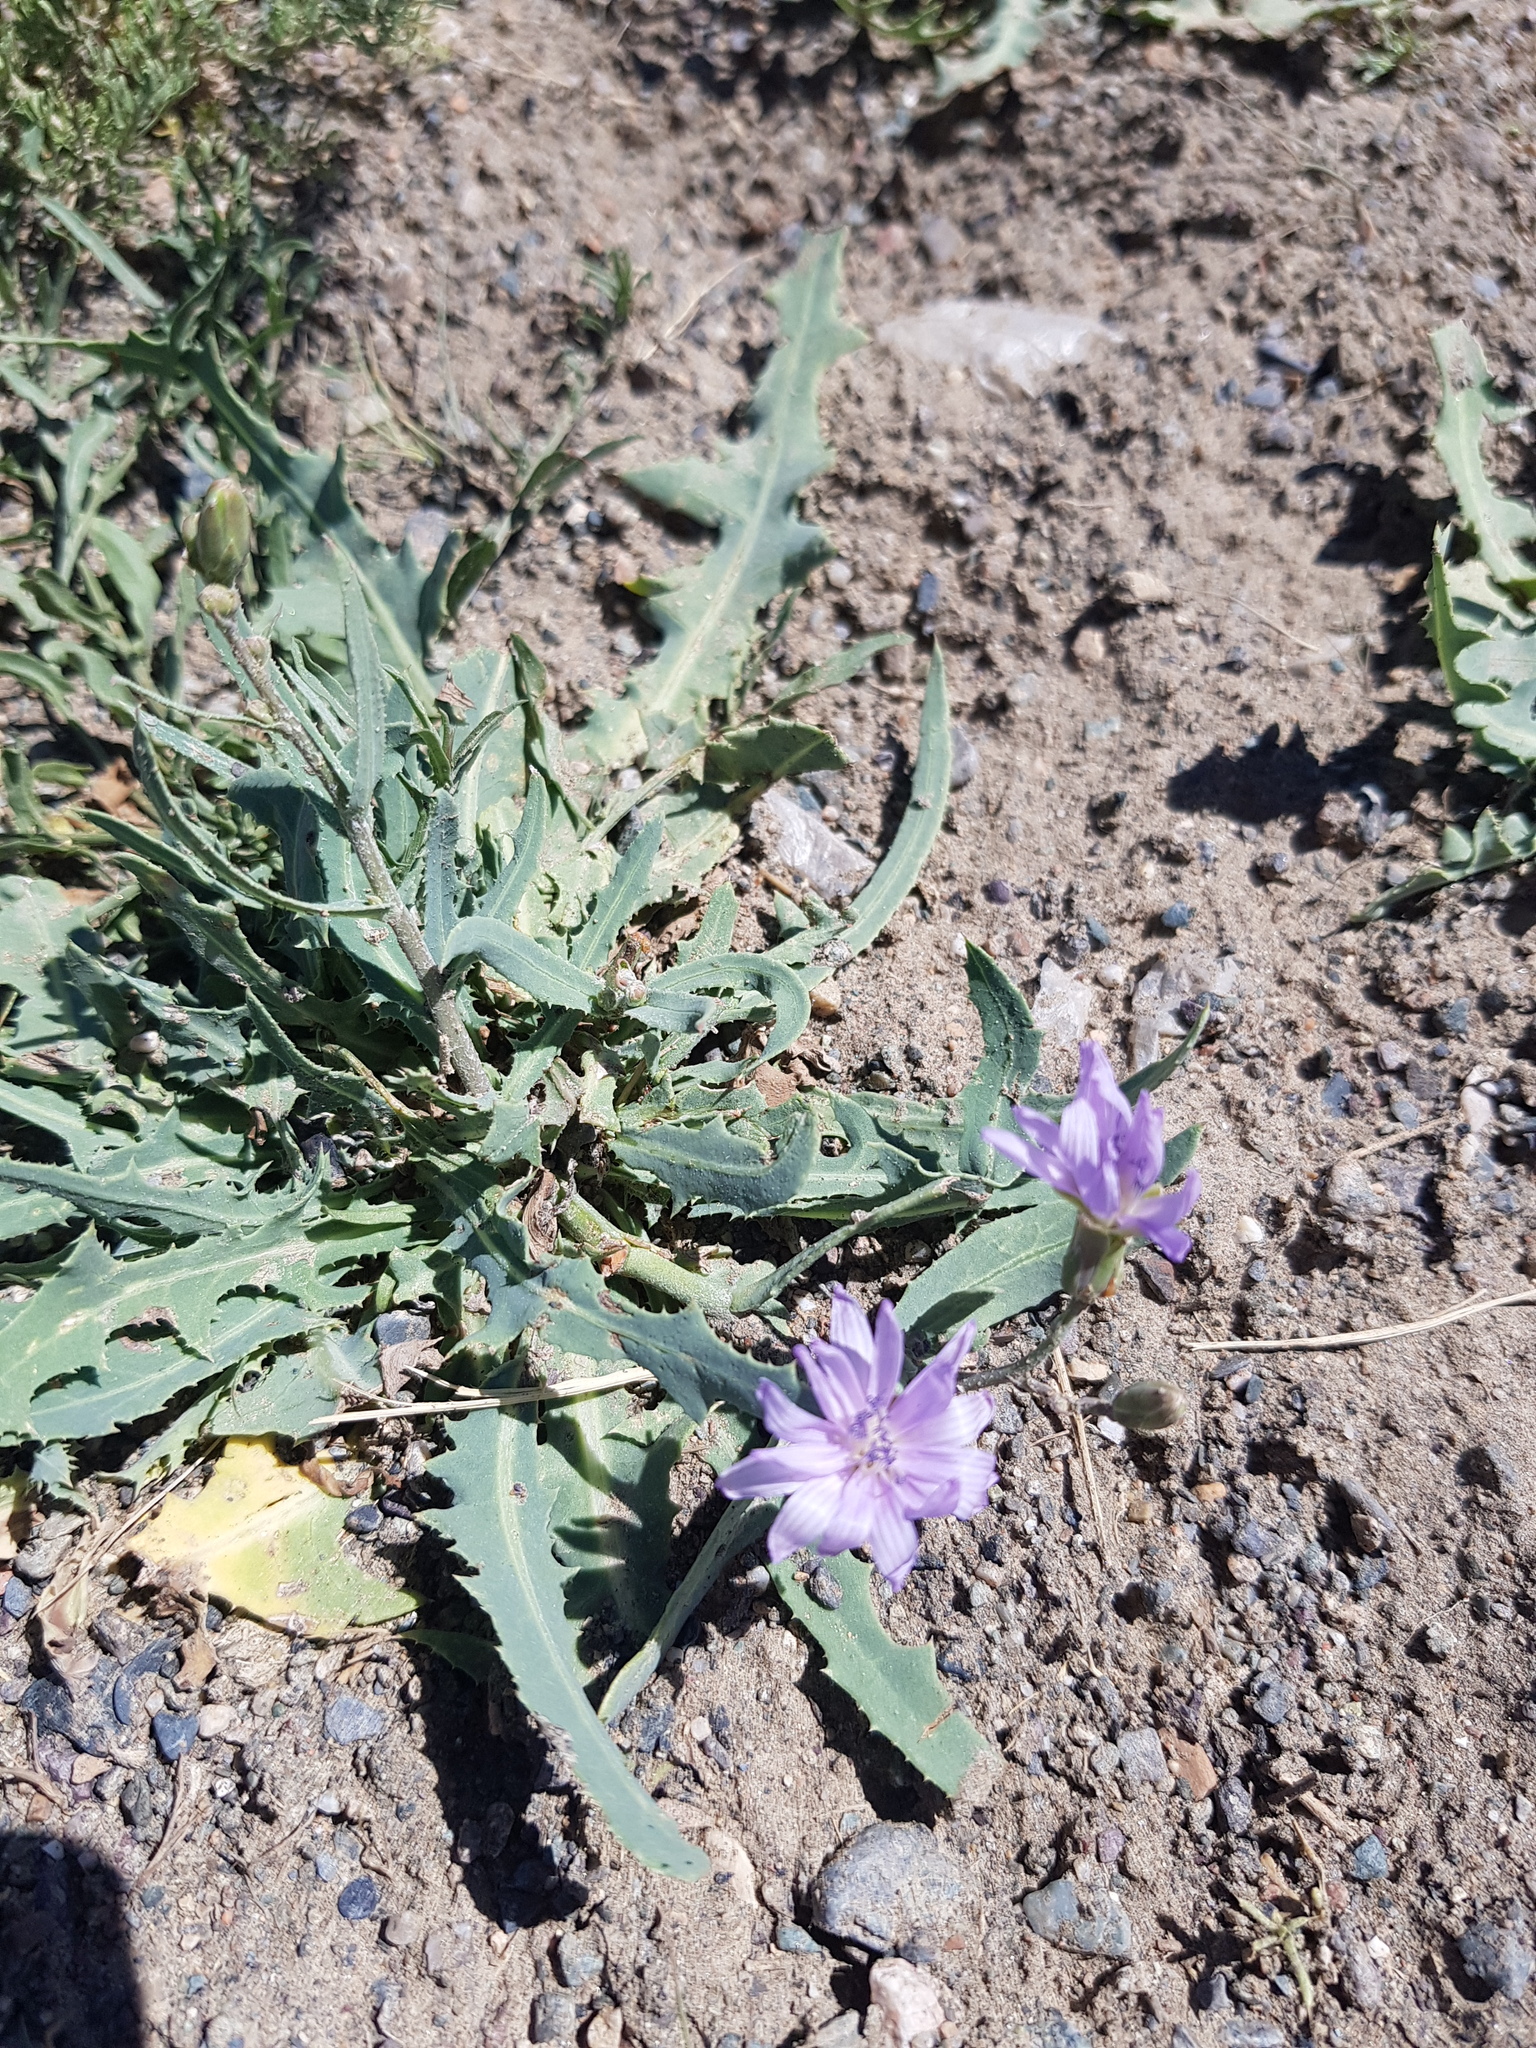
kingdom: Plantae
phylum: Tracheophyta
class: Magnoliopsida
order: Asterales
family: Asteraceae
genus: Lactuca
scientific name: Lactuca tatarica
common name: Blue lettuce
